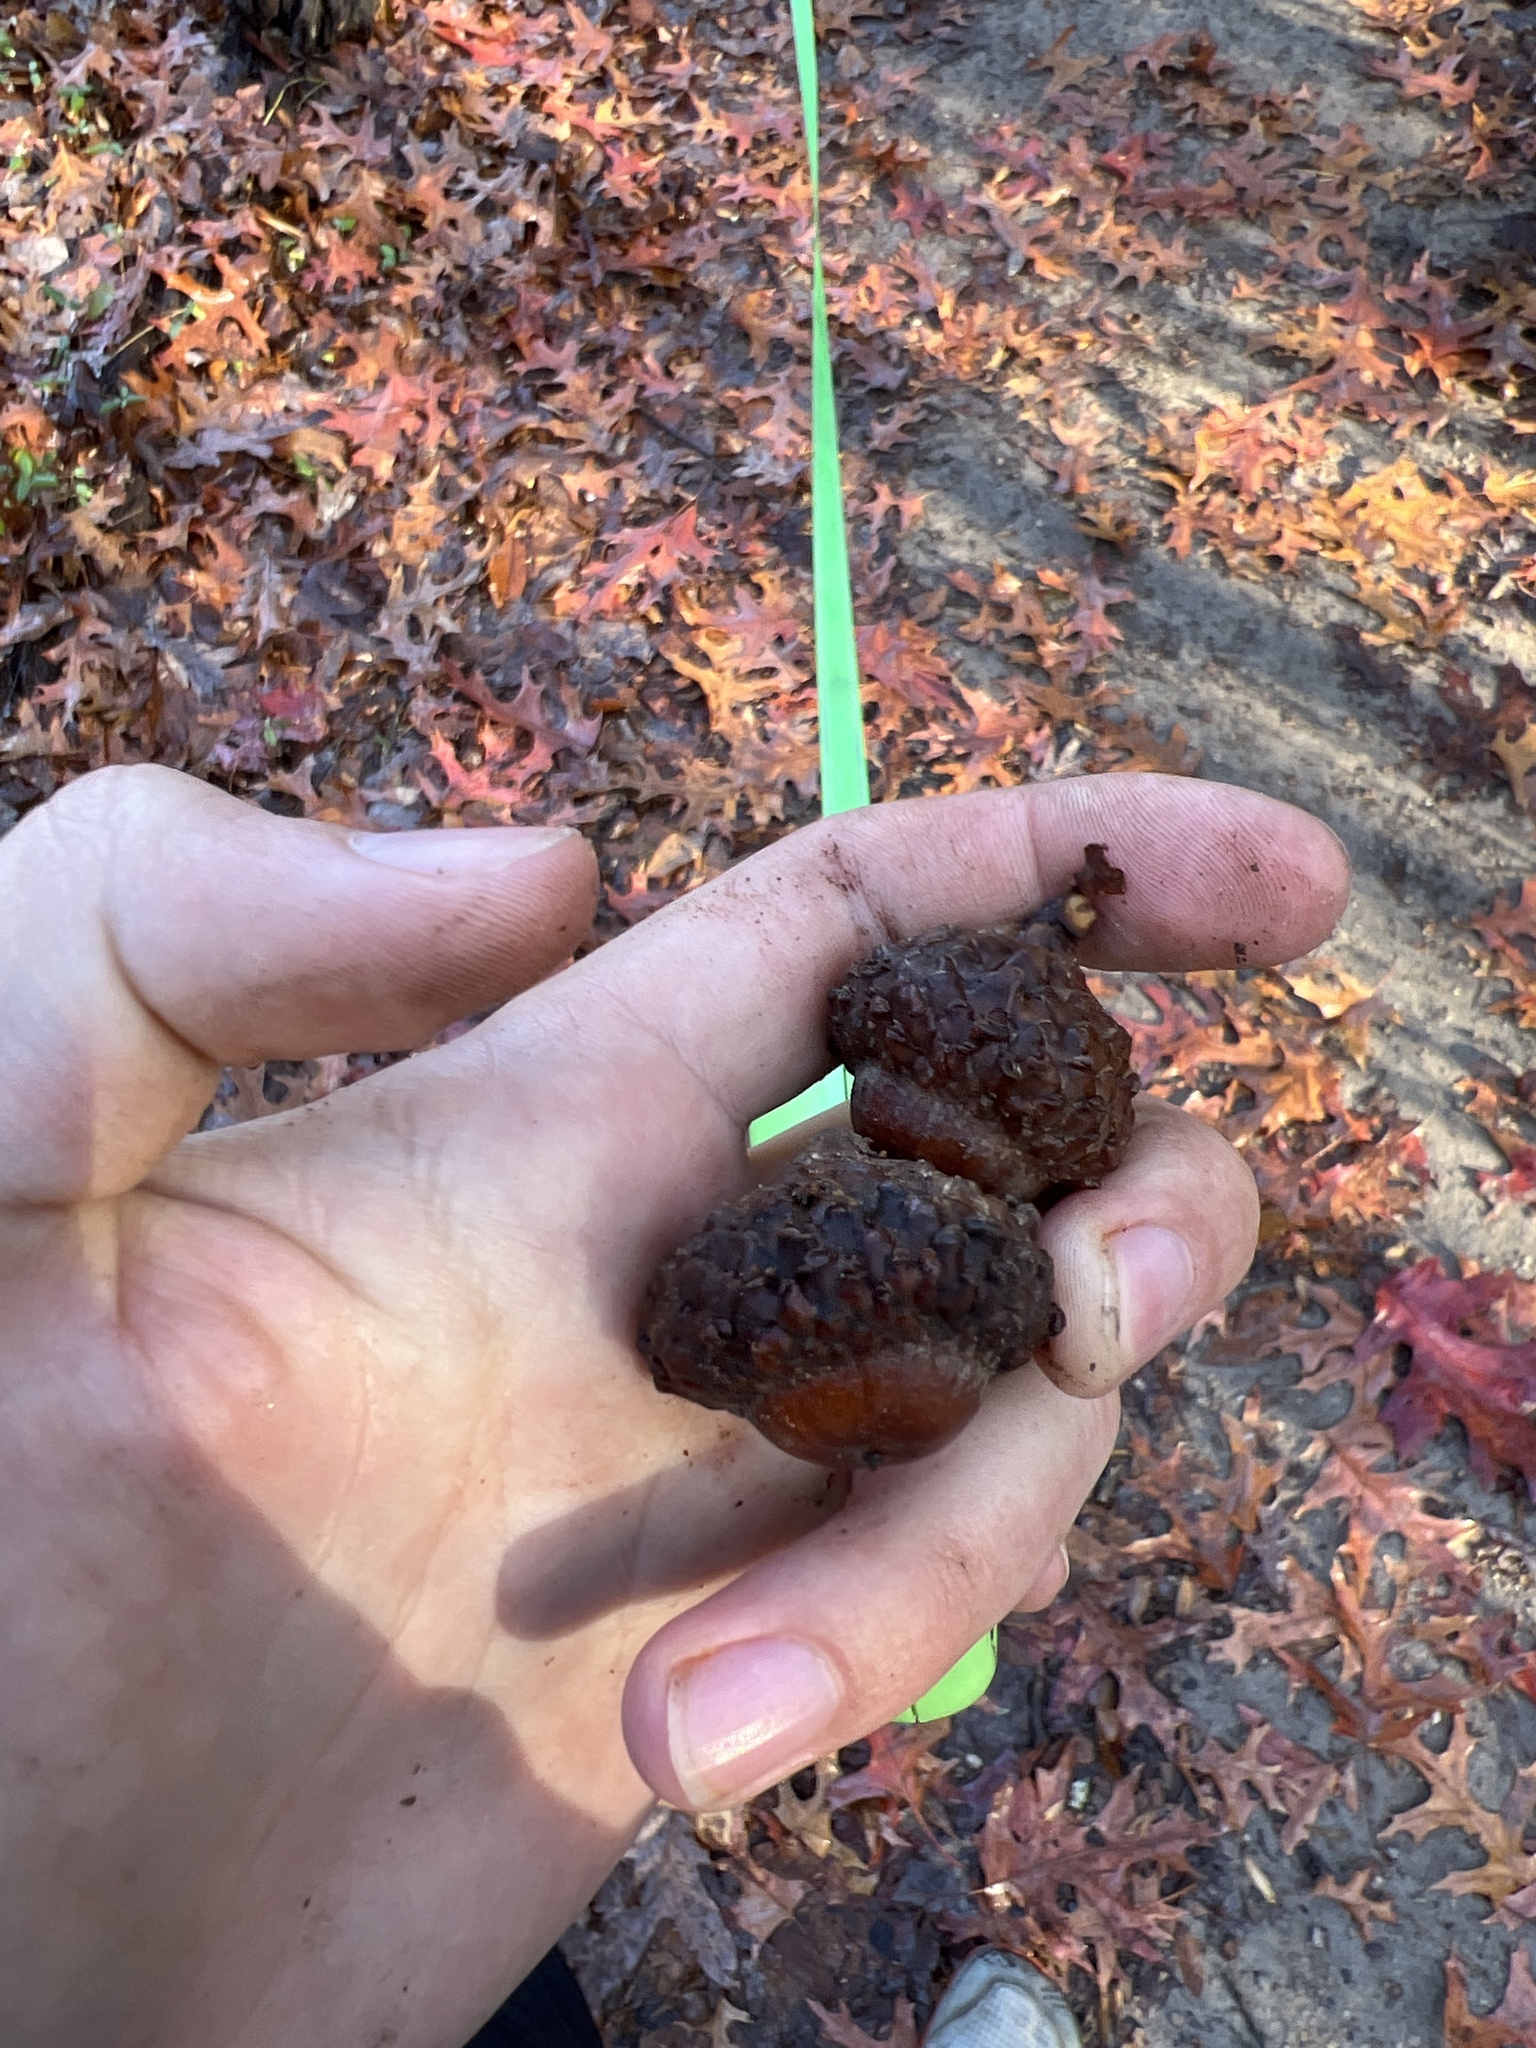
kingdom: Plantae
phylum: Tracheophyta
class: Magnoliopsida
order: Fagales
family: Fagaceae
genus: Quercus
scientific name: Quercus coccinea
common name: Scarlet oak
